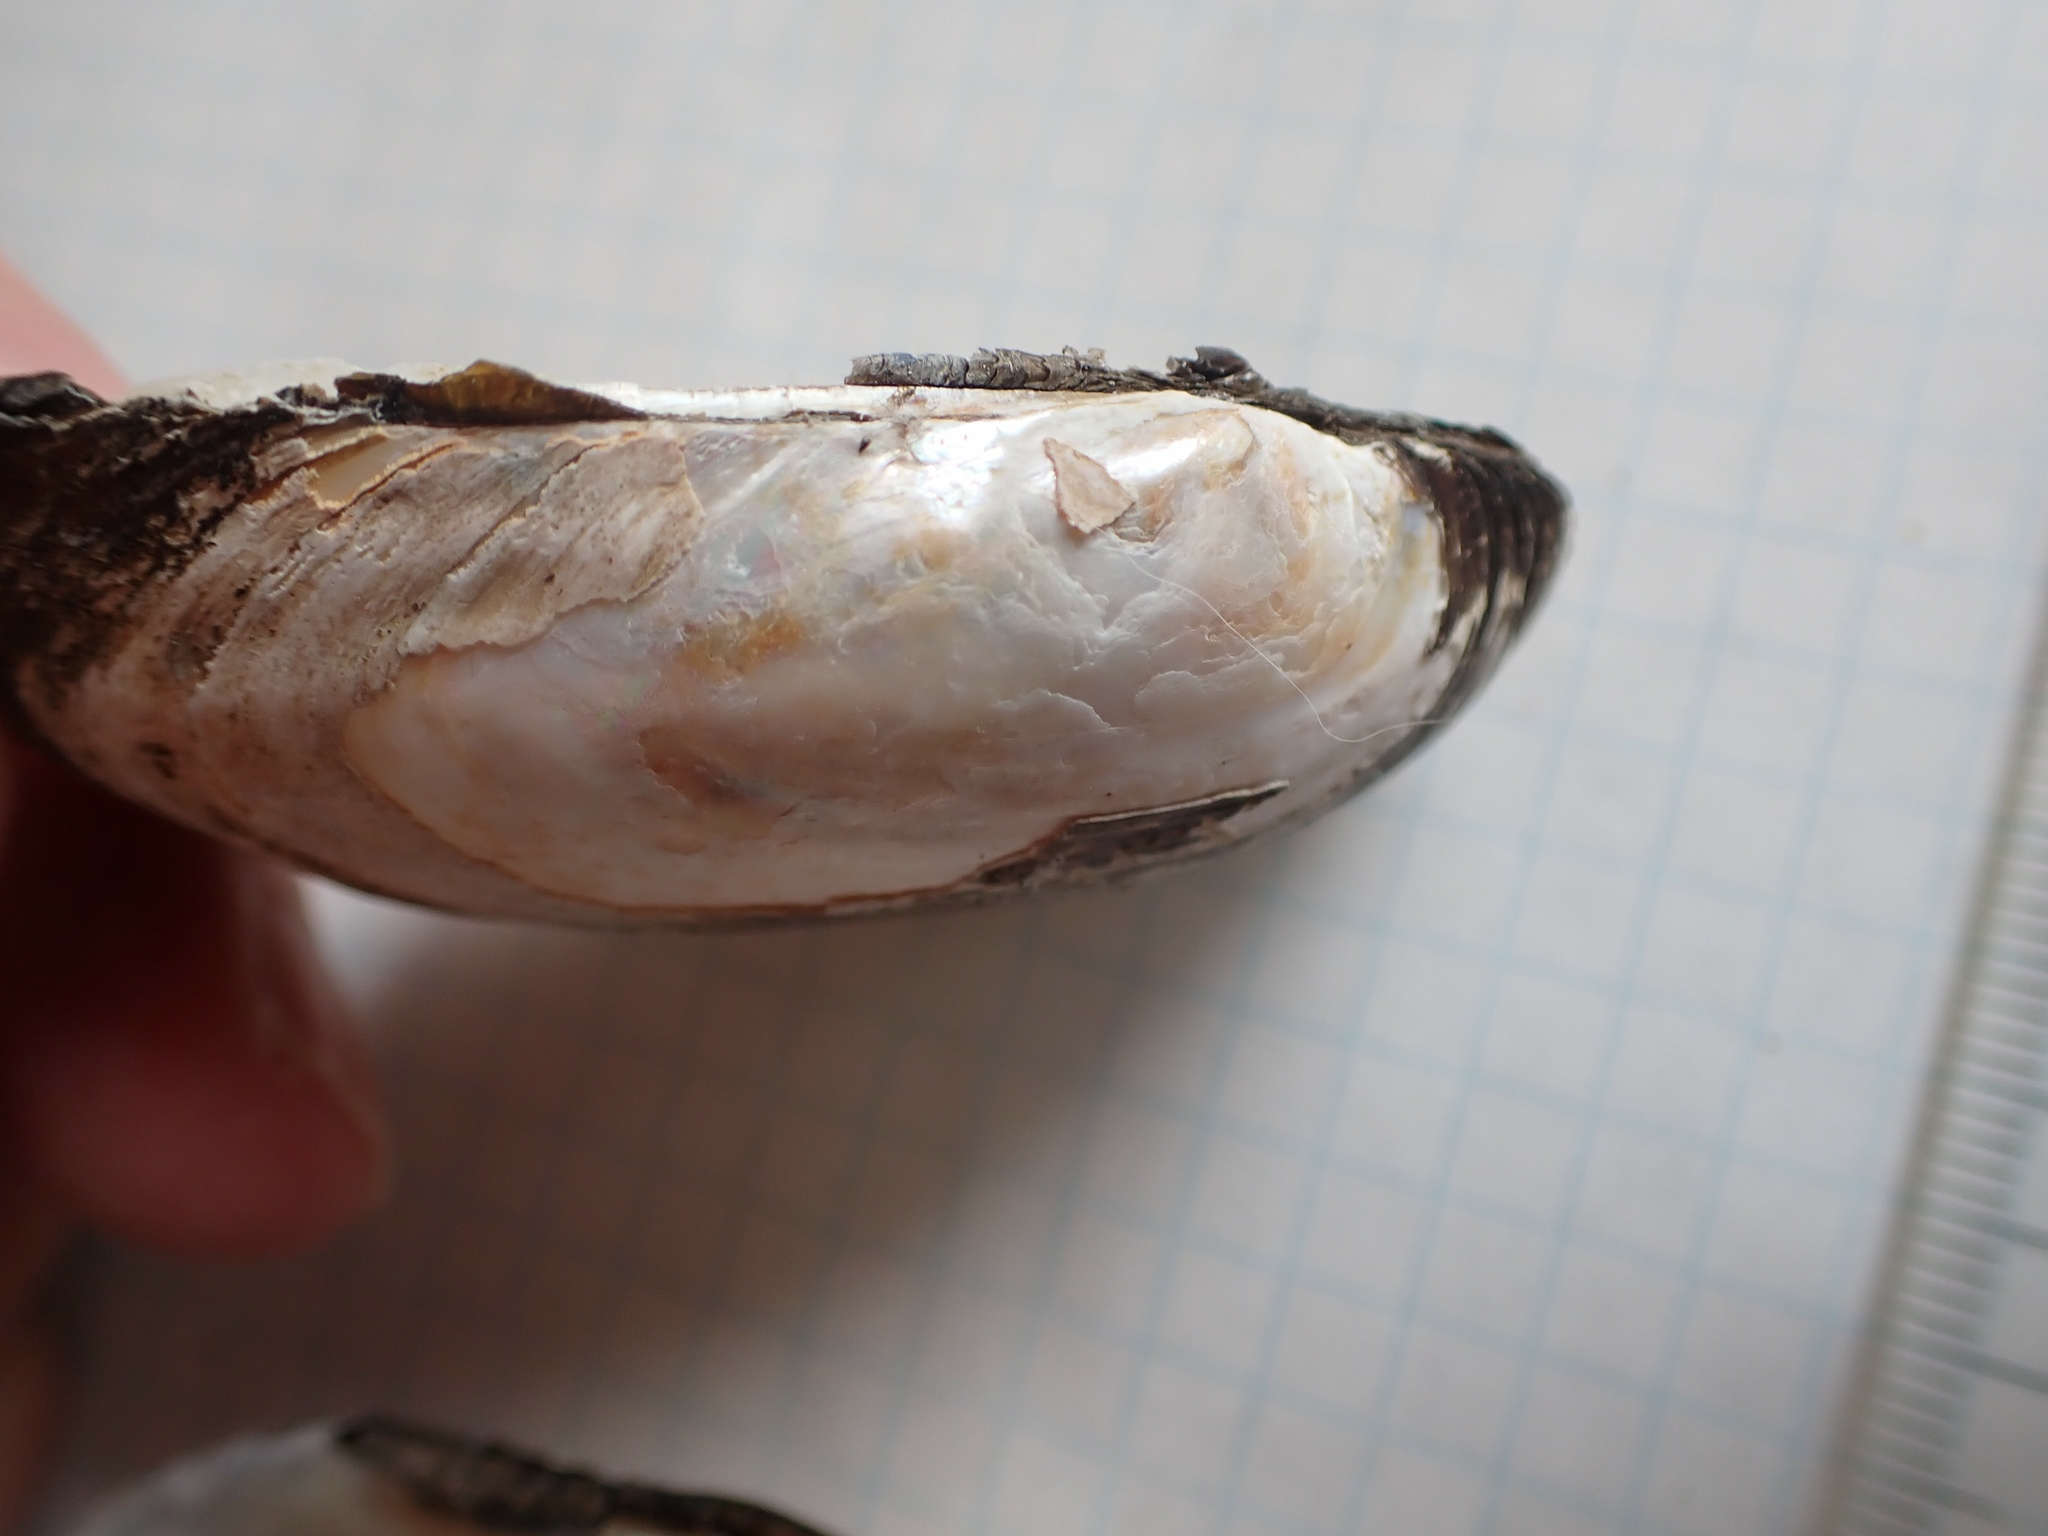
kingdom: Animalia
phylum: Mollusca
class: Bivalvia
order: Unionida
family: Unionidae
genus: Lampsilis
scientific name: Lampsilis siliquoidea
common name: Fatmucket
